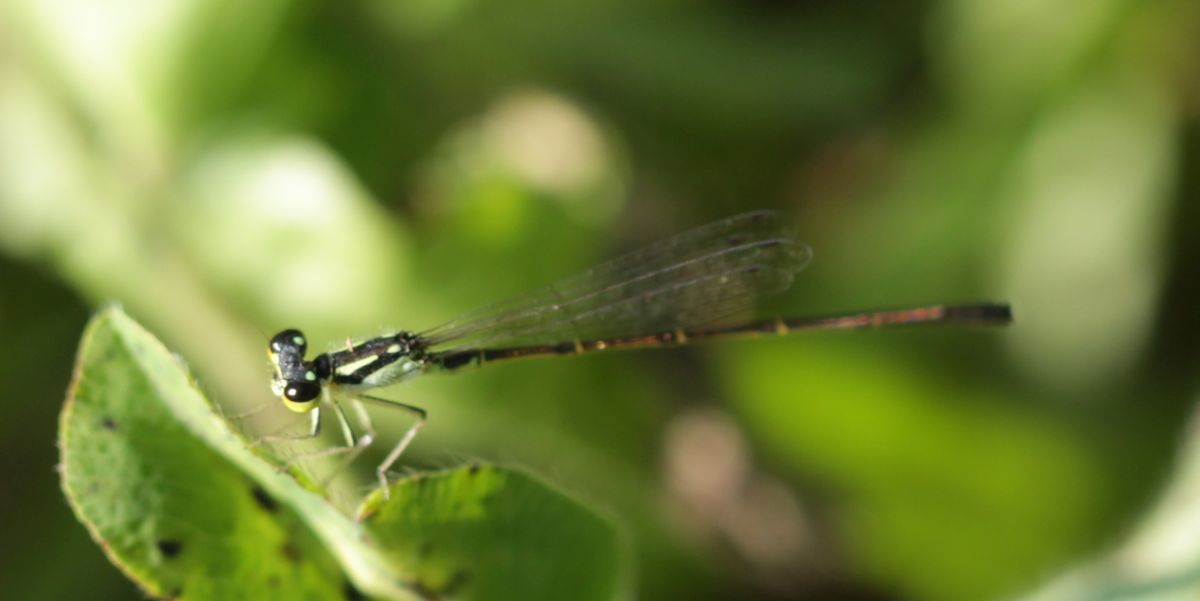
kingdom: Animalia
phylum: Arthropoda
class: Insecta
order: Odonata
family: Coenagrionidae
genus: Ischnura
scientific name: Ischnura posita
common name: Fragile forktail
